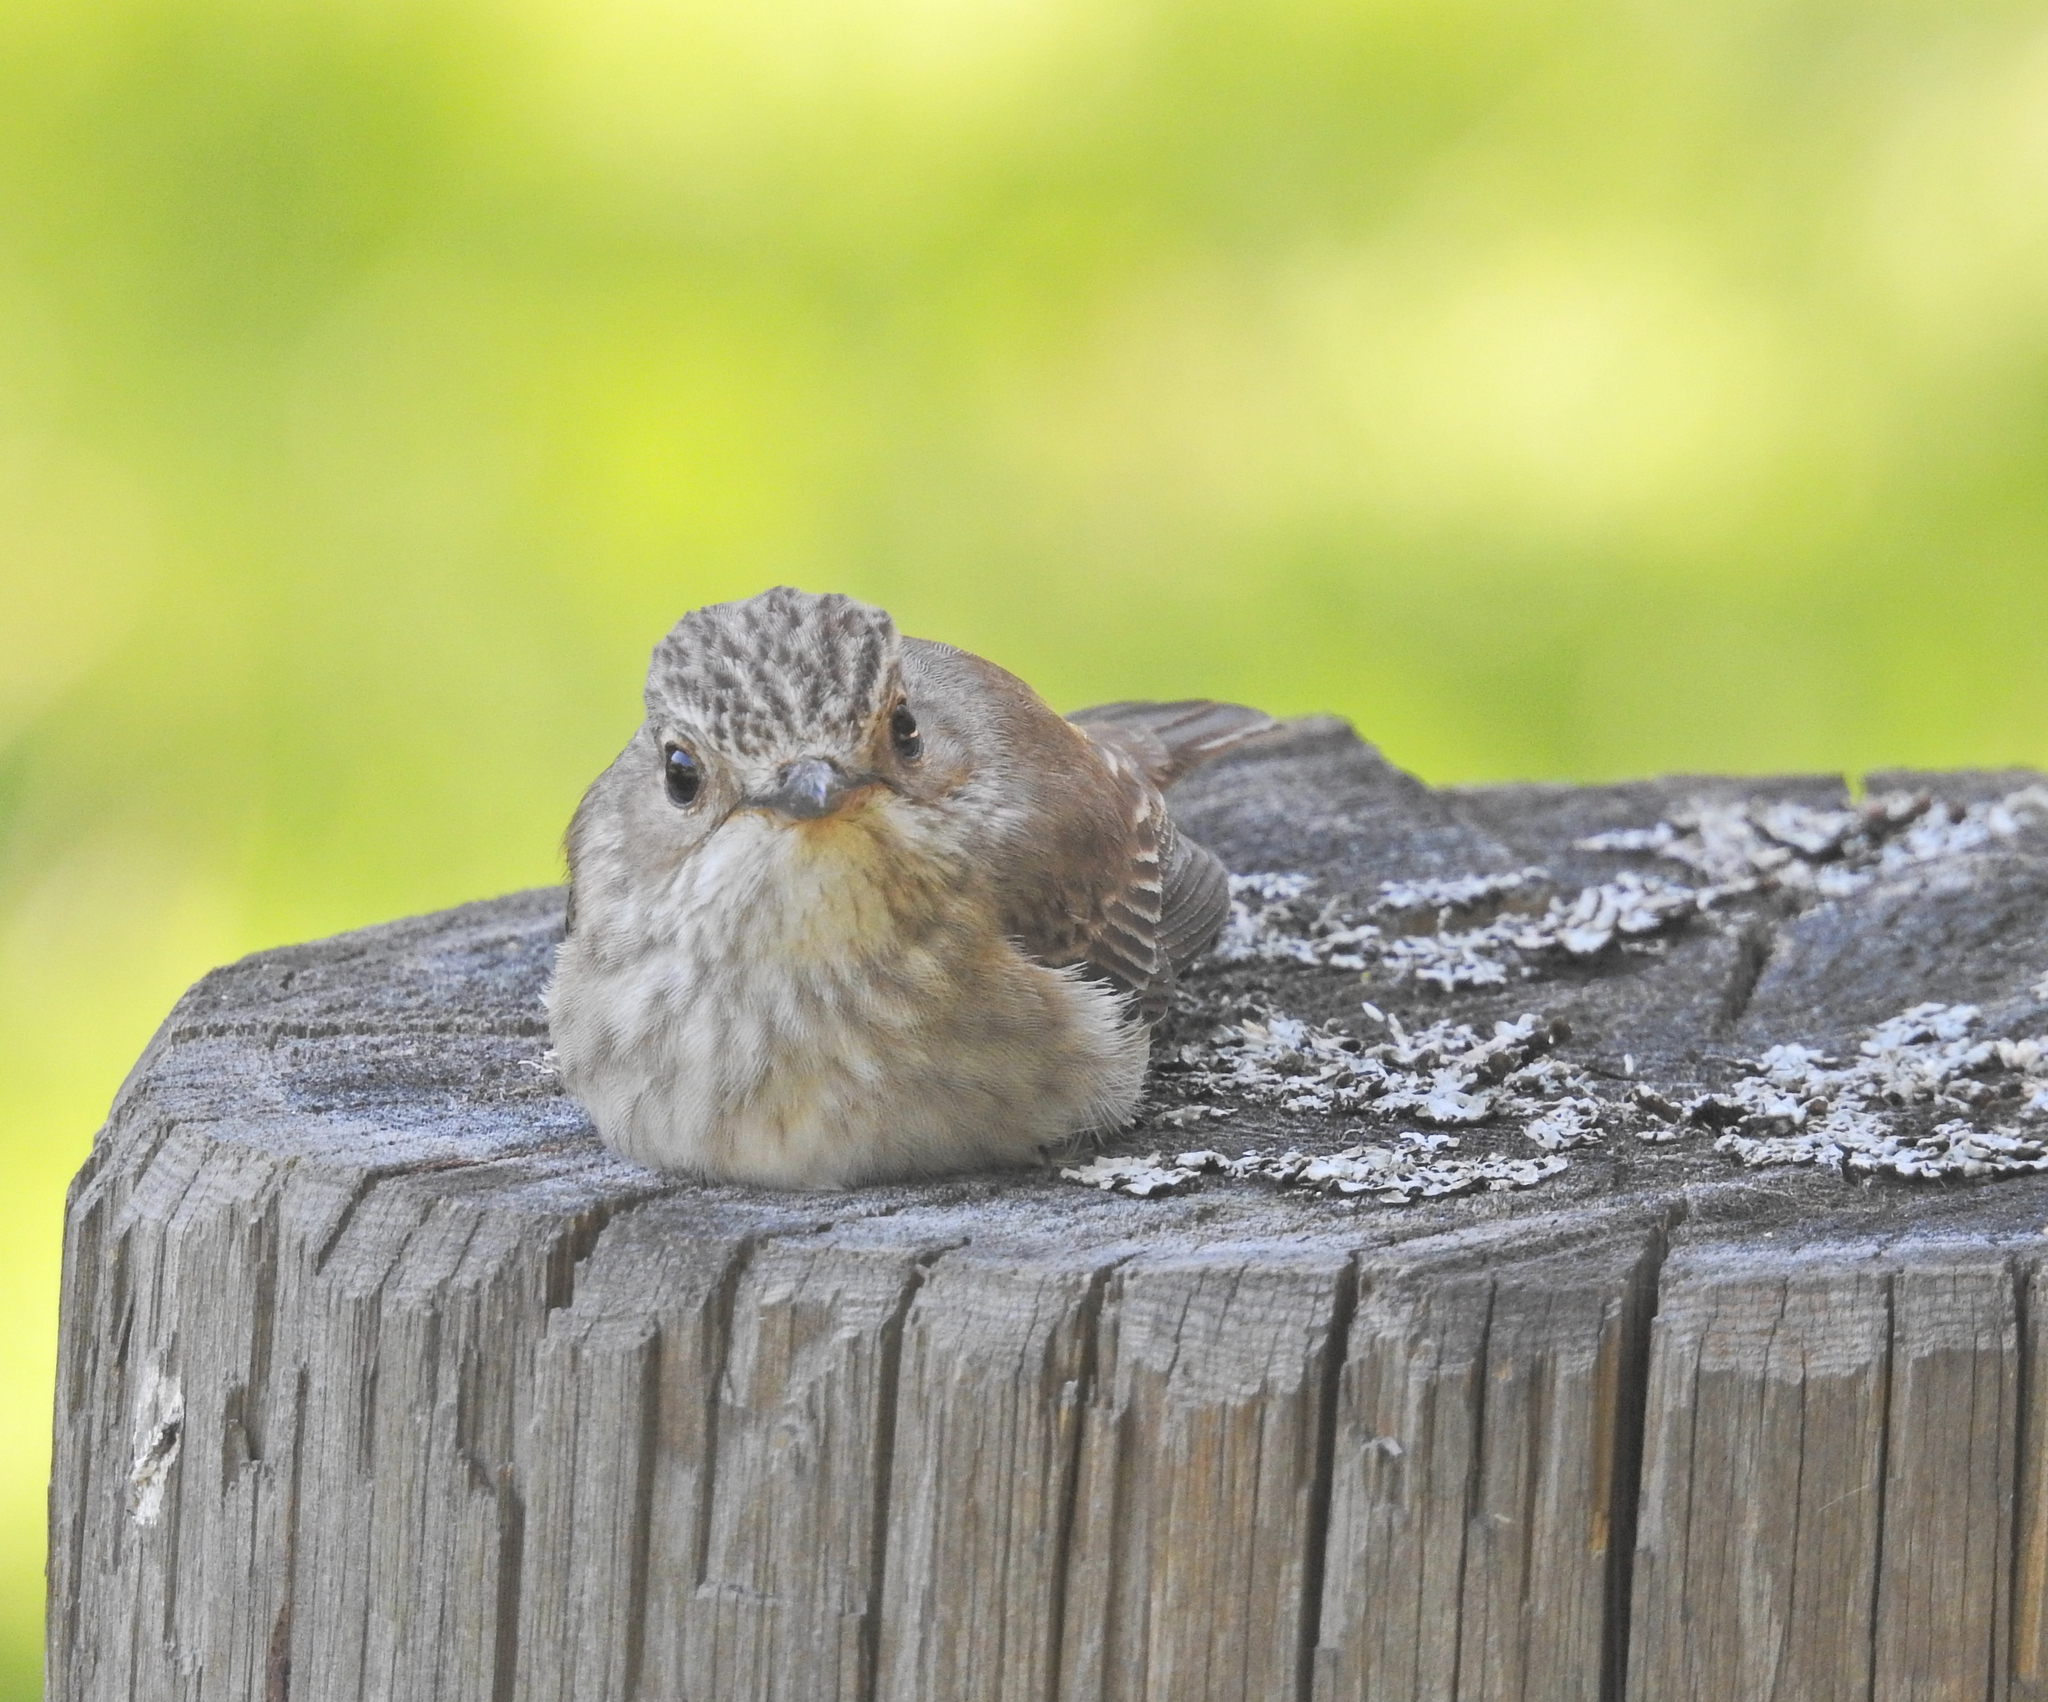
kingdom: Animalia
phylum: Chordata
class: Aves
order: Passeriformes
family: Muscicapidae
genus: Muscicapa
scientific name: Muscicapa striata
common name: Spotted flycatcher
